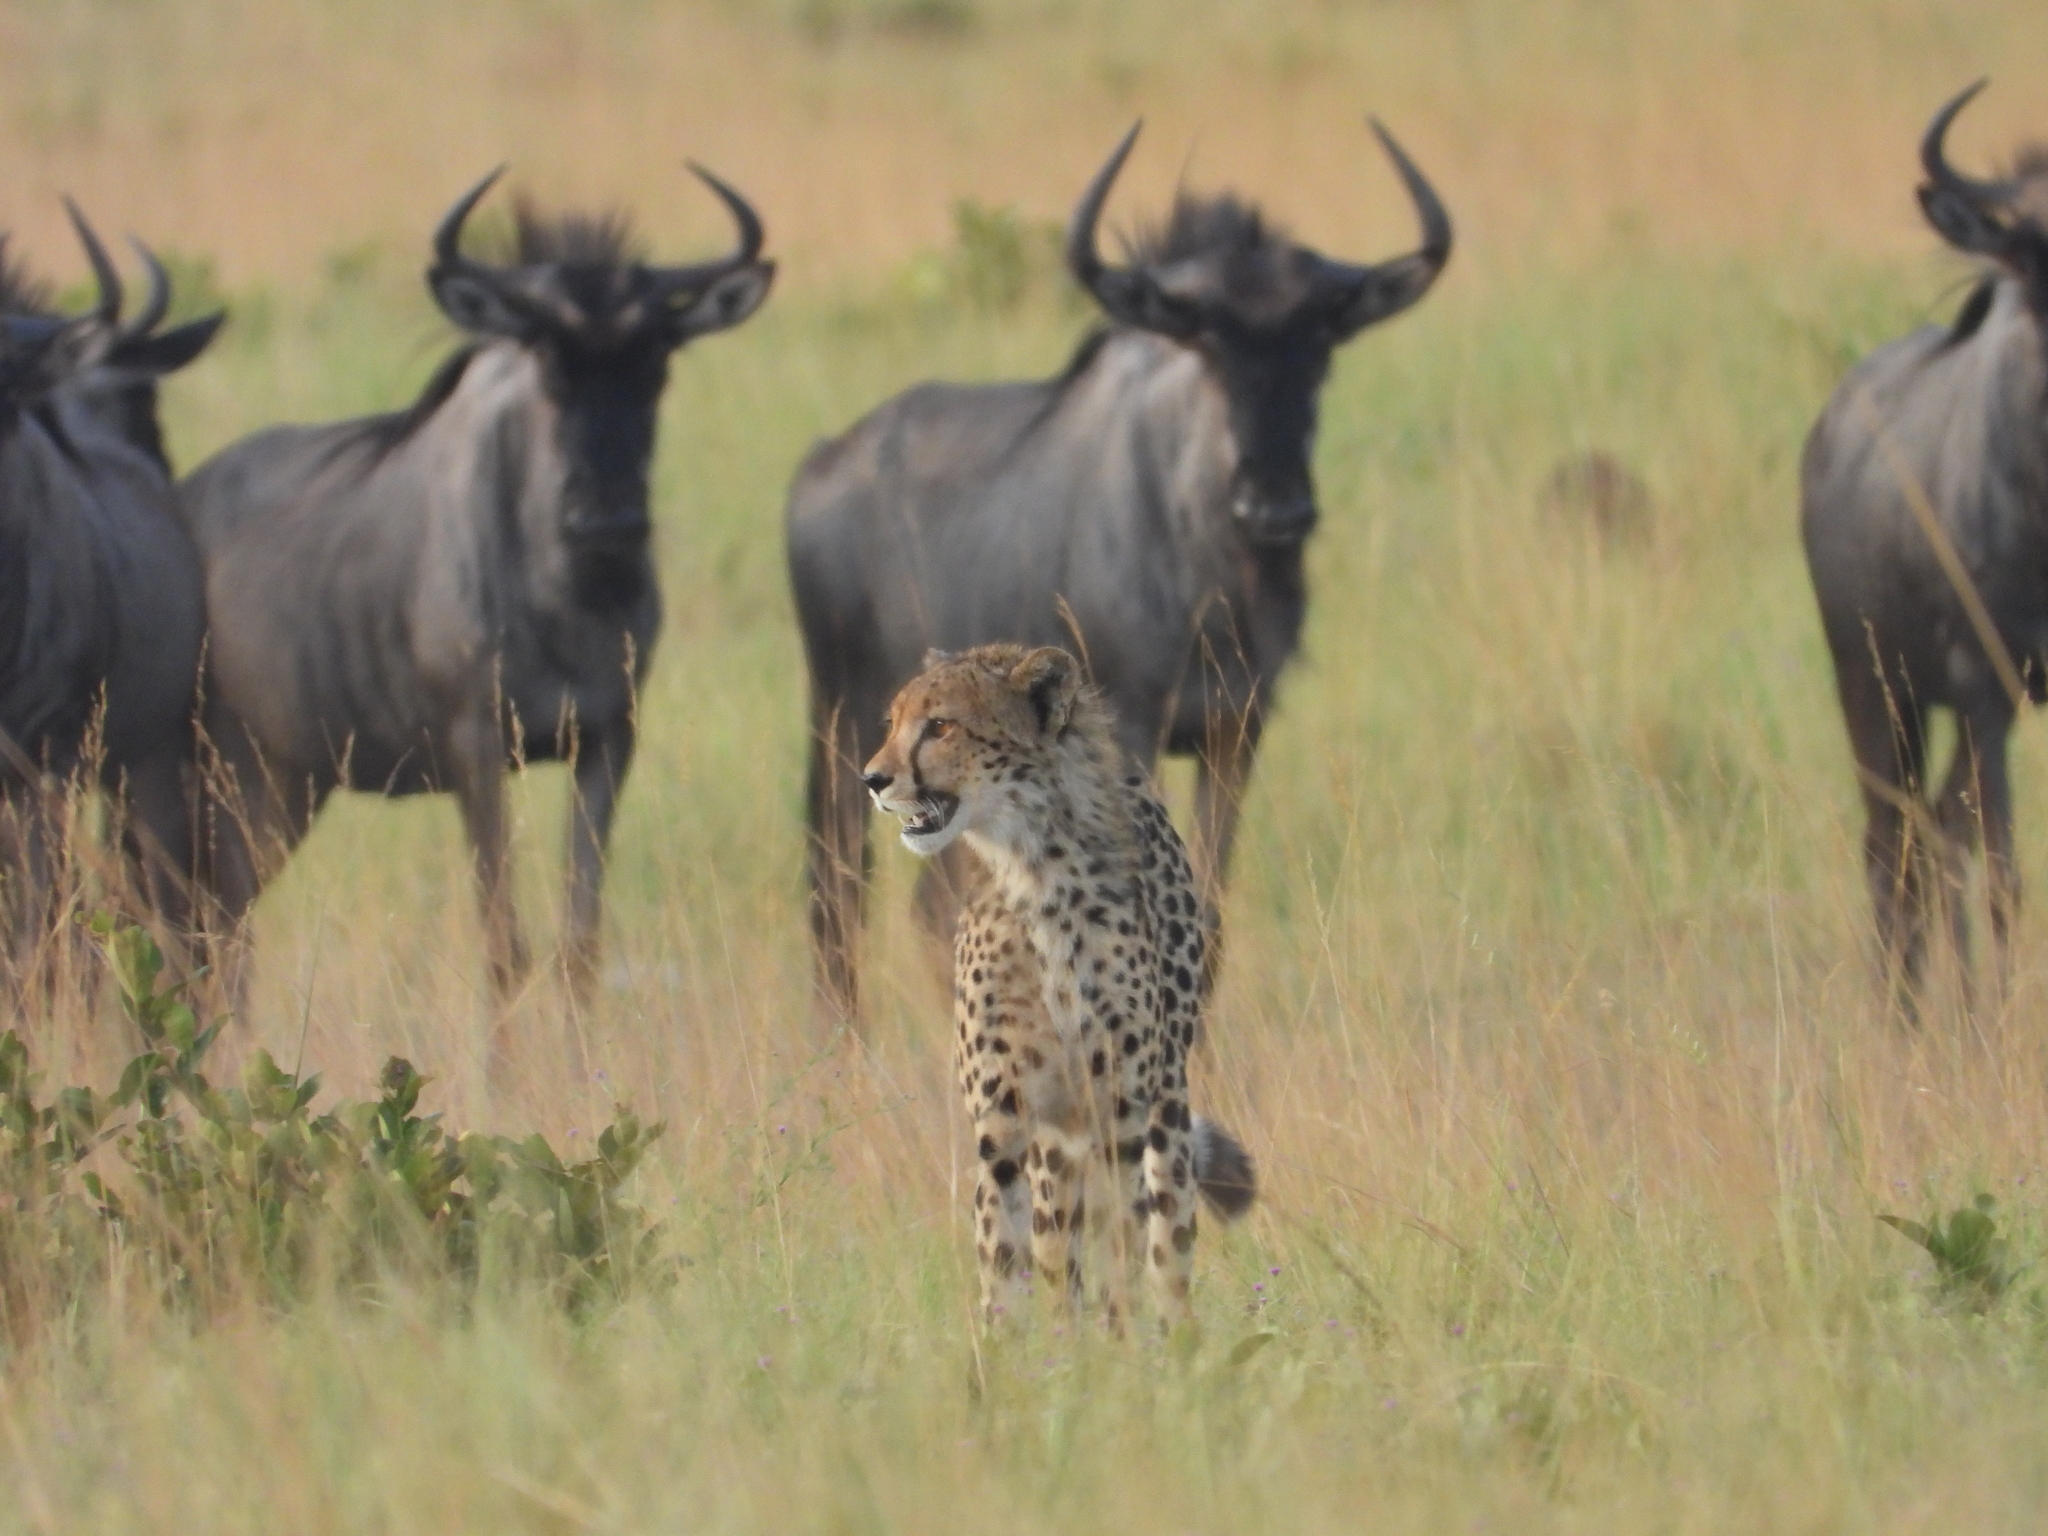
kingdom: Animalia
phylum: Chordata
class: Mammalia
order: Carnivora
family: Felidae
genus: Acinonyx
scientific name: Acinonyx jubatus
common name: Cheetah
